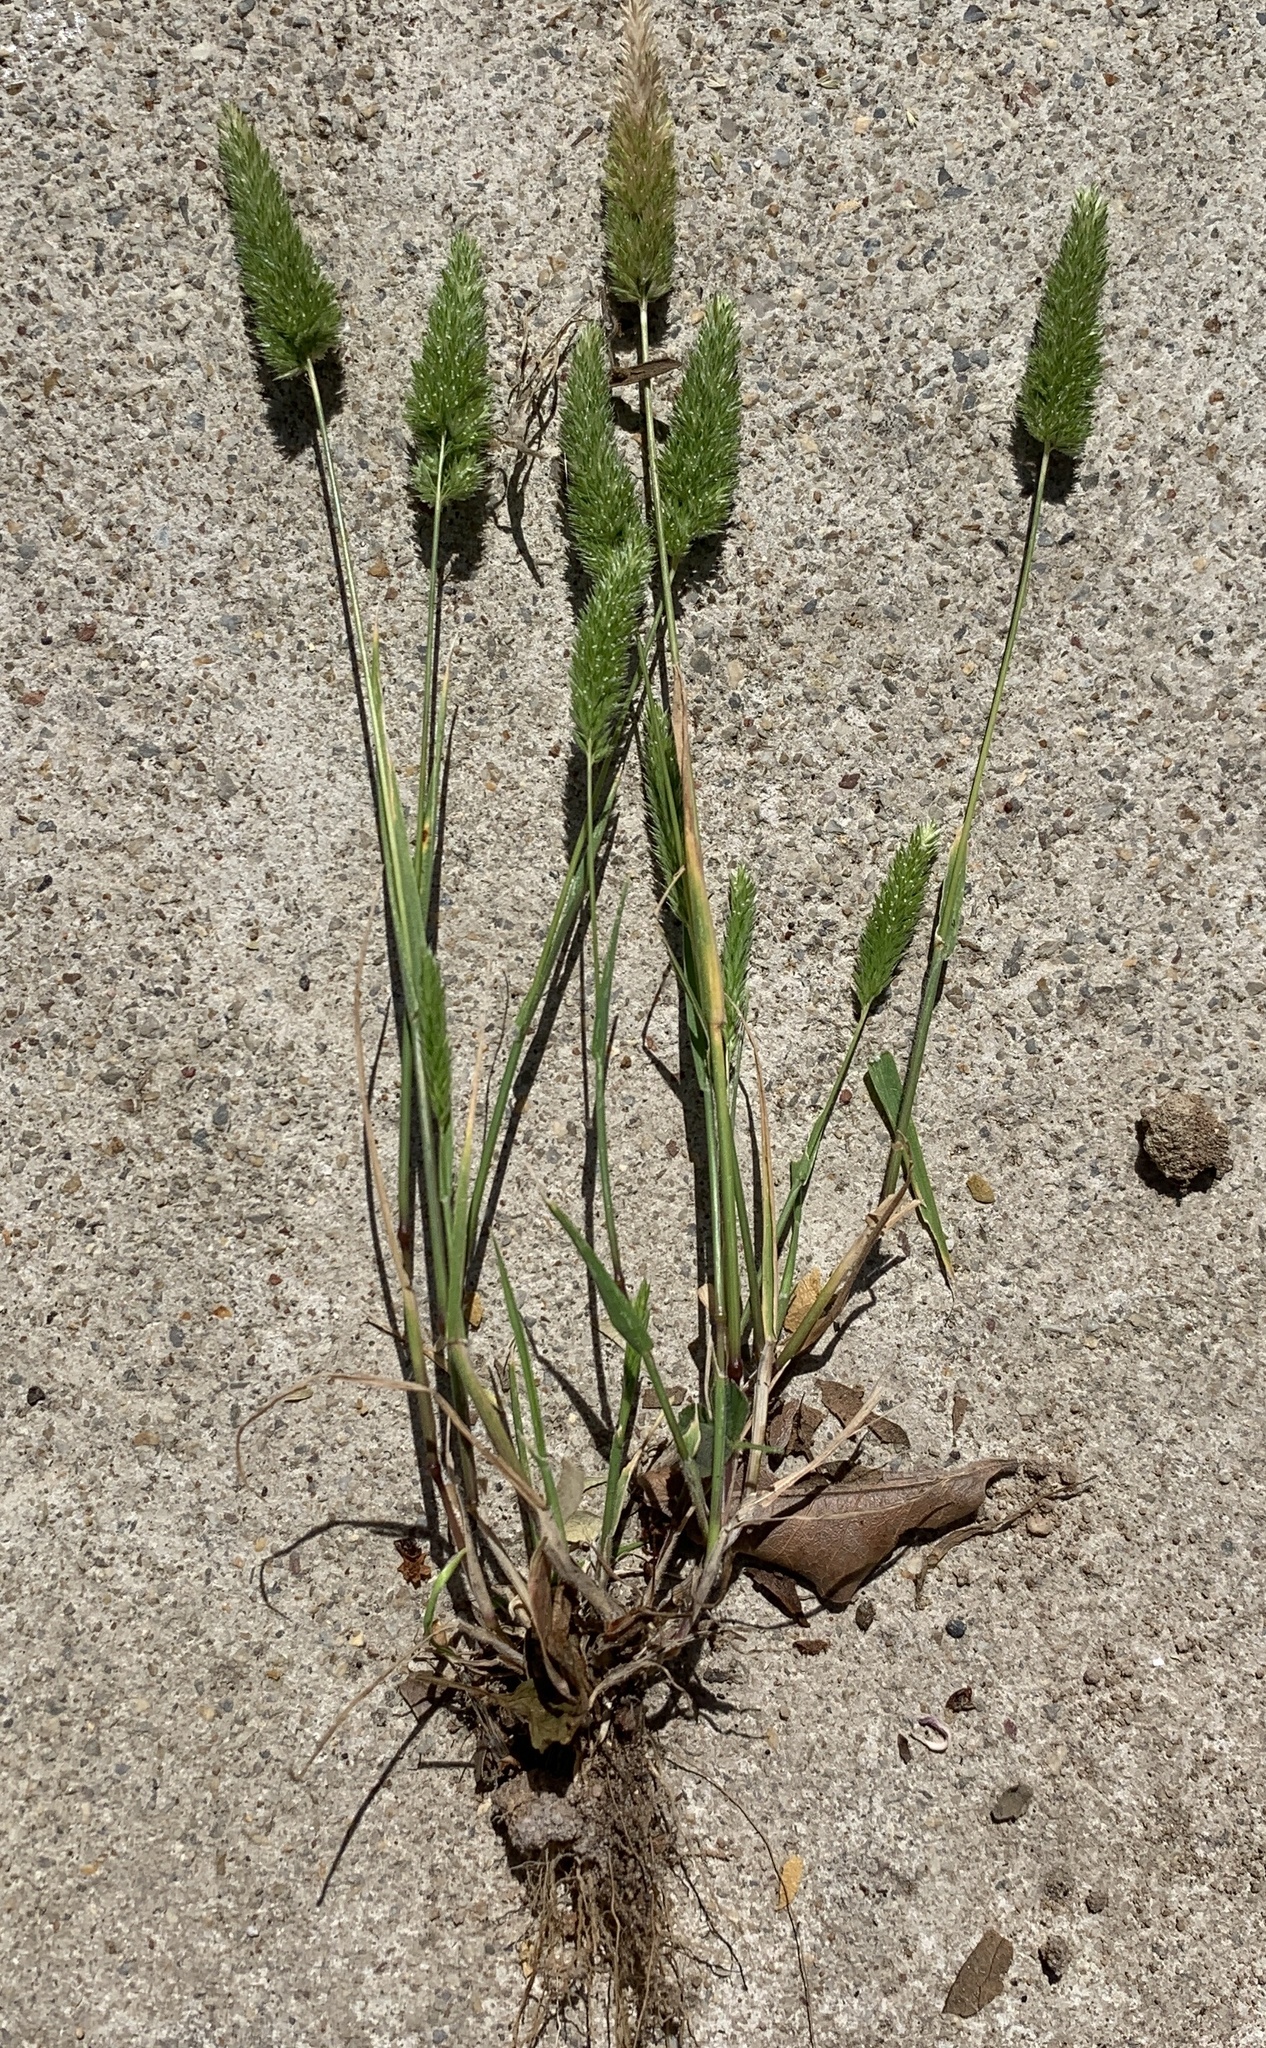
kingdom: Plantae
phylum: Tracheophyta
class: Liliopsida
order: Poales
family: Poaceae
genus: Rostraria
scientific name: Rostraria cristata
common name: Mediterranean hair-grass
